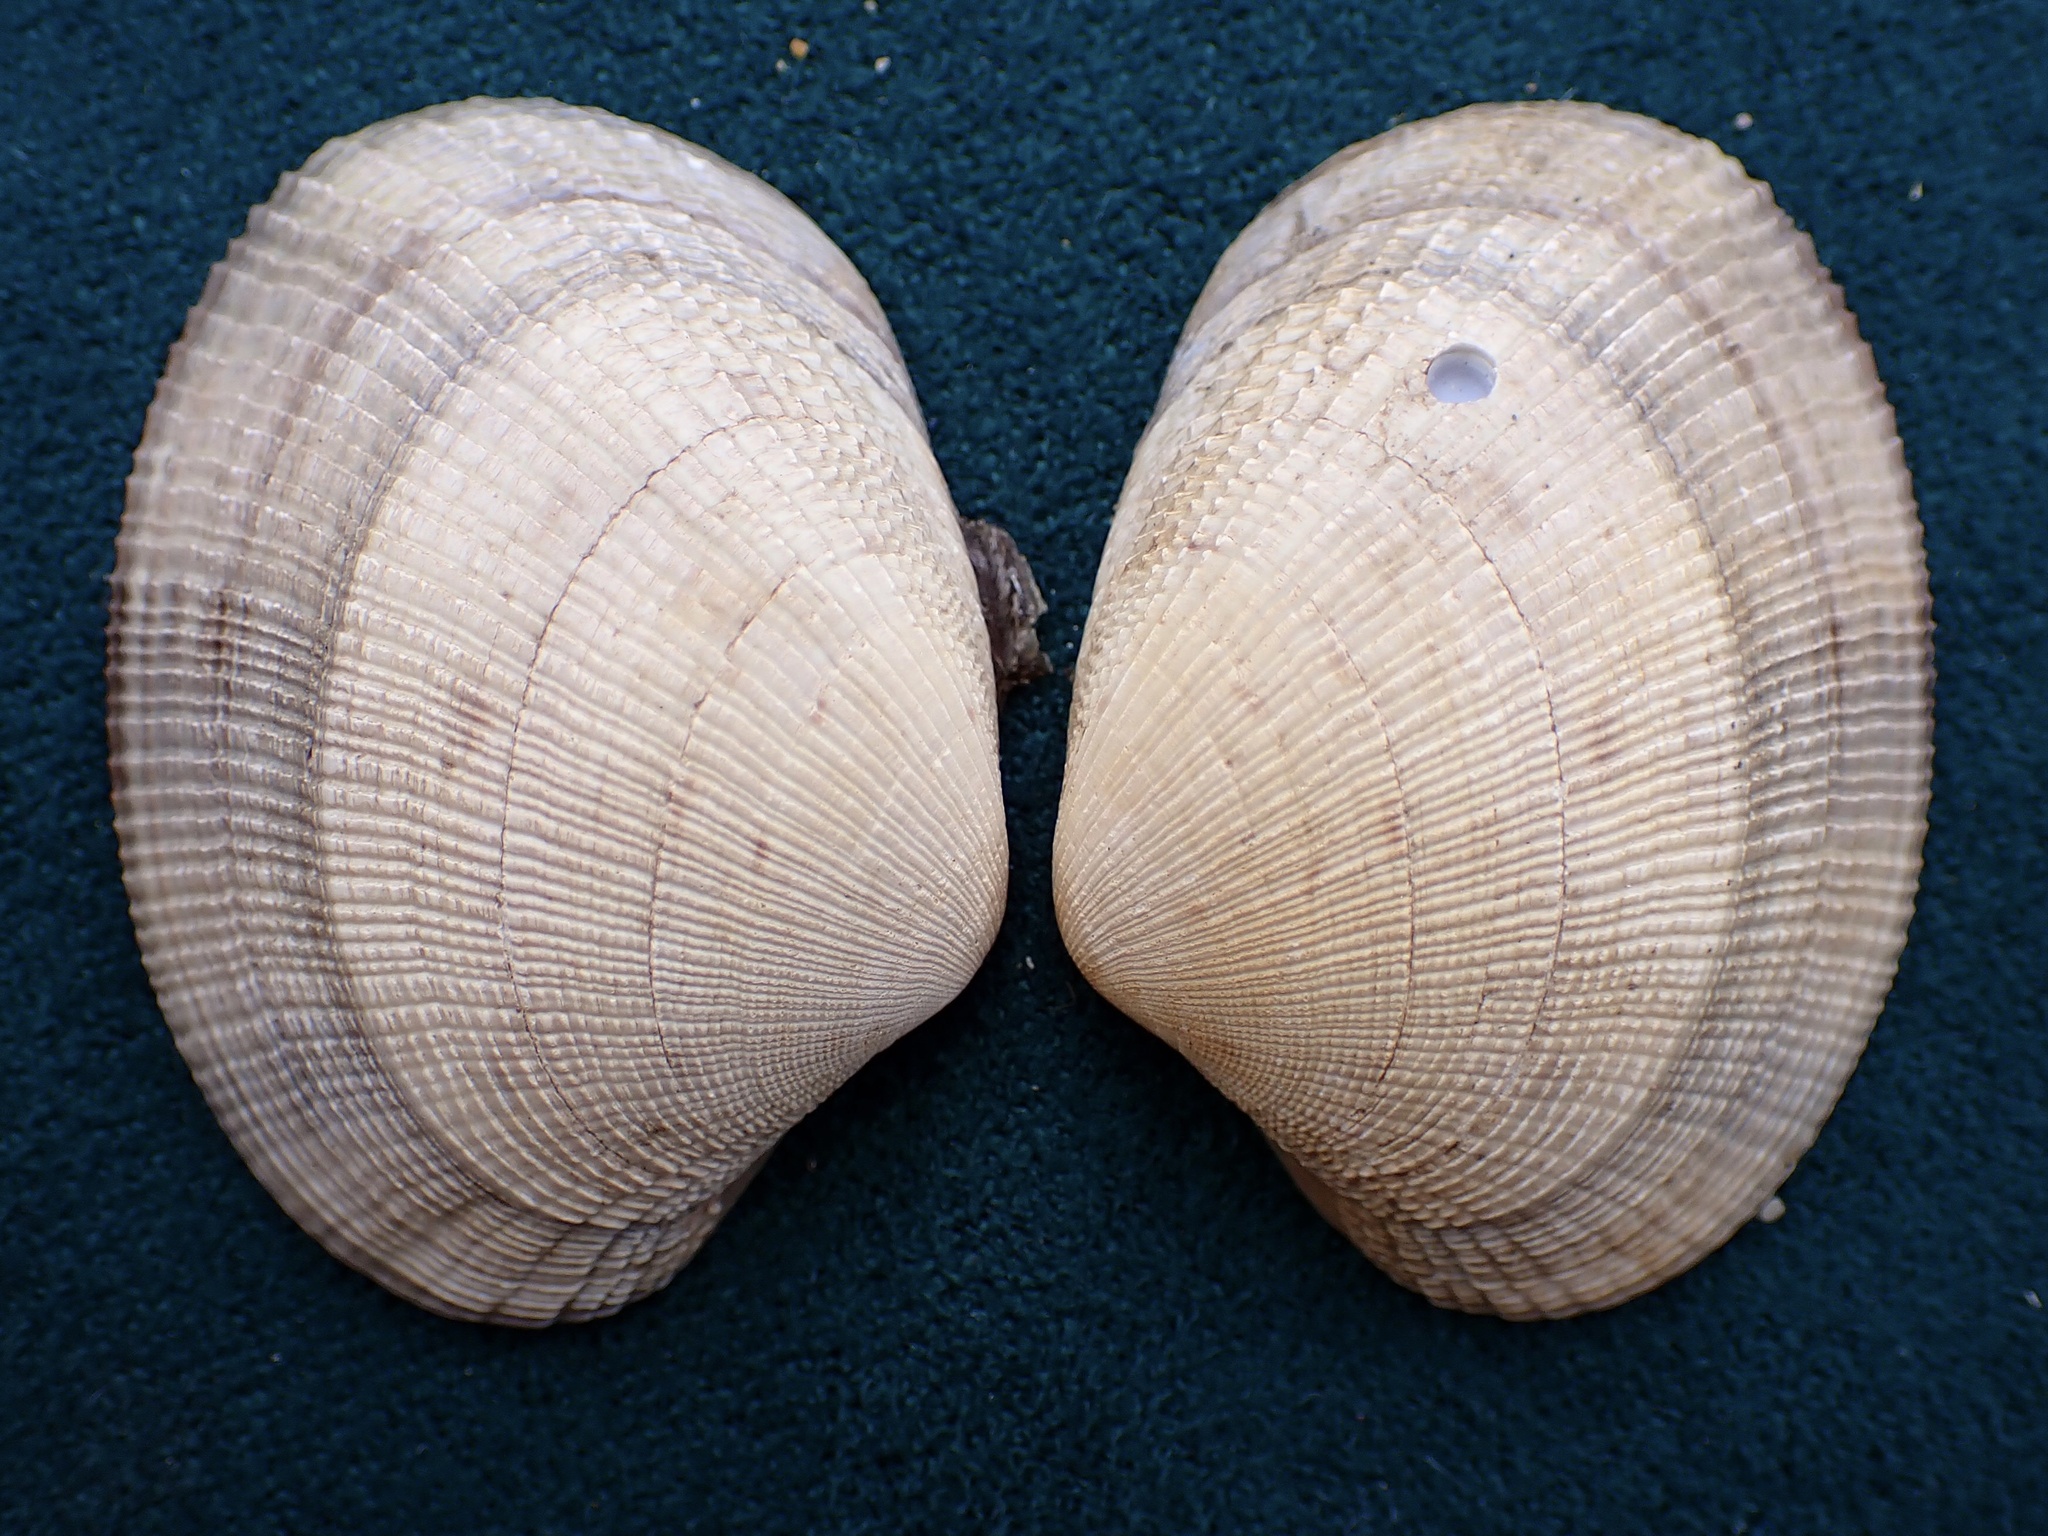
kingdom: Animalia
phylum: Mollusca
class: Bivalvia
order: Venerida
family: Veneridae
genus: Ruditapes
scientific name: Ruditapes philippinarum
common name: Manila clam
